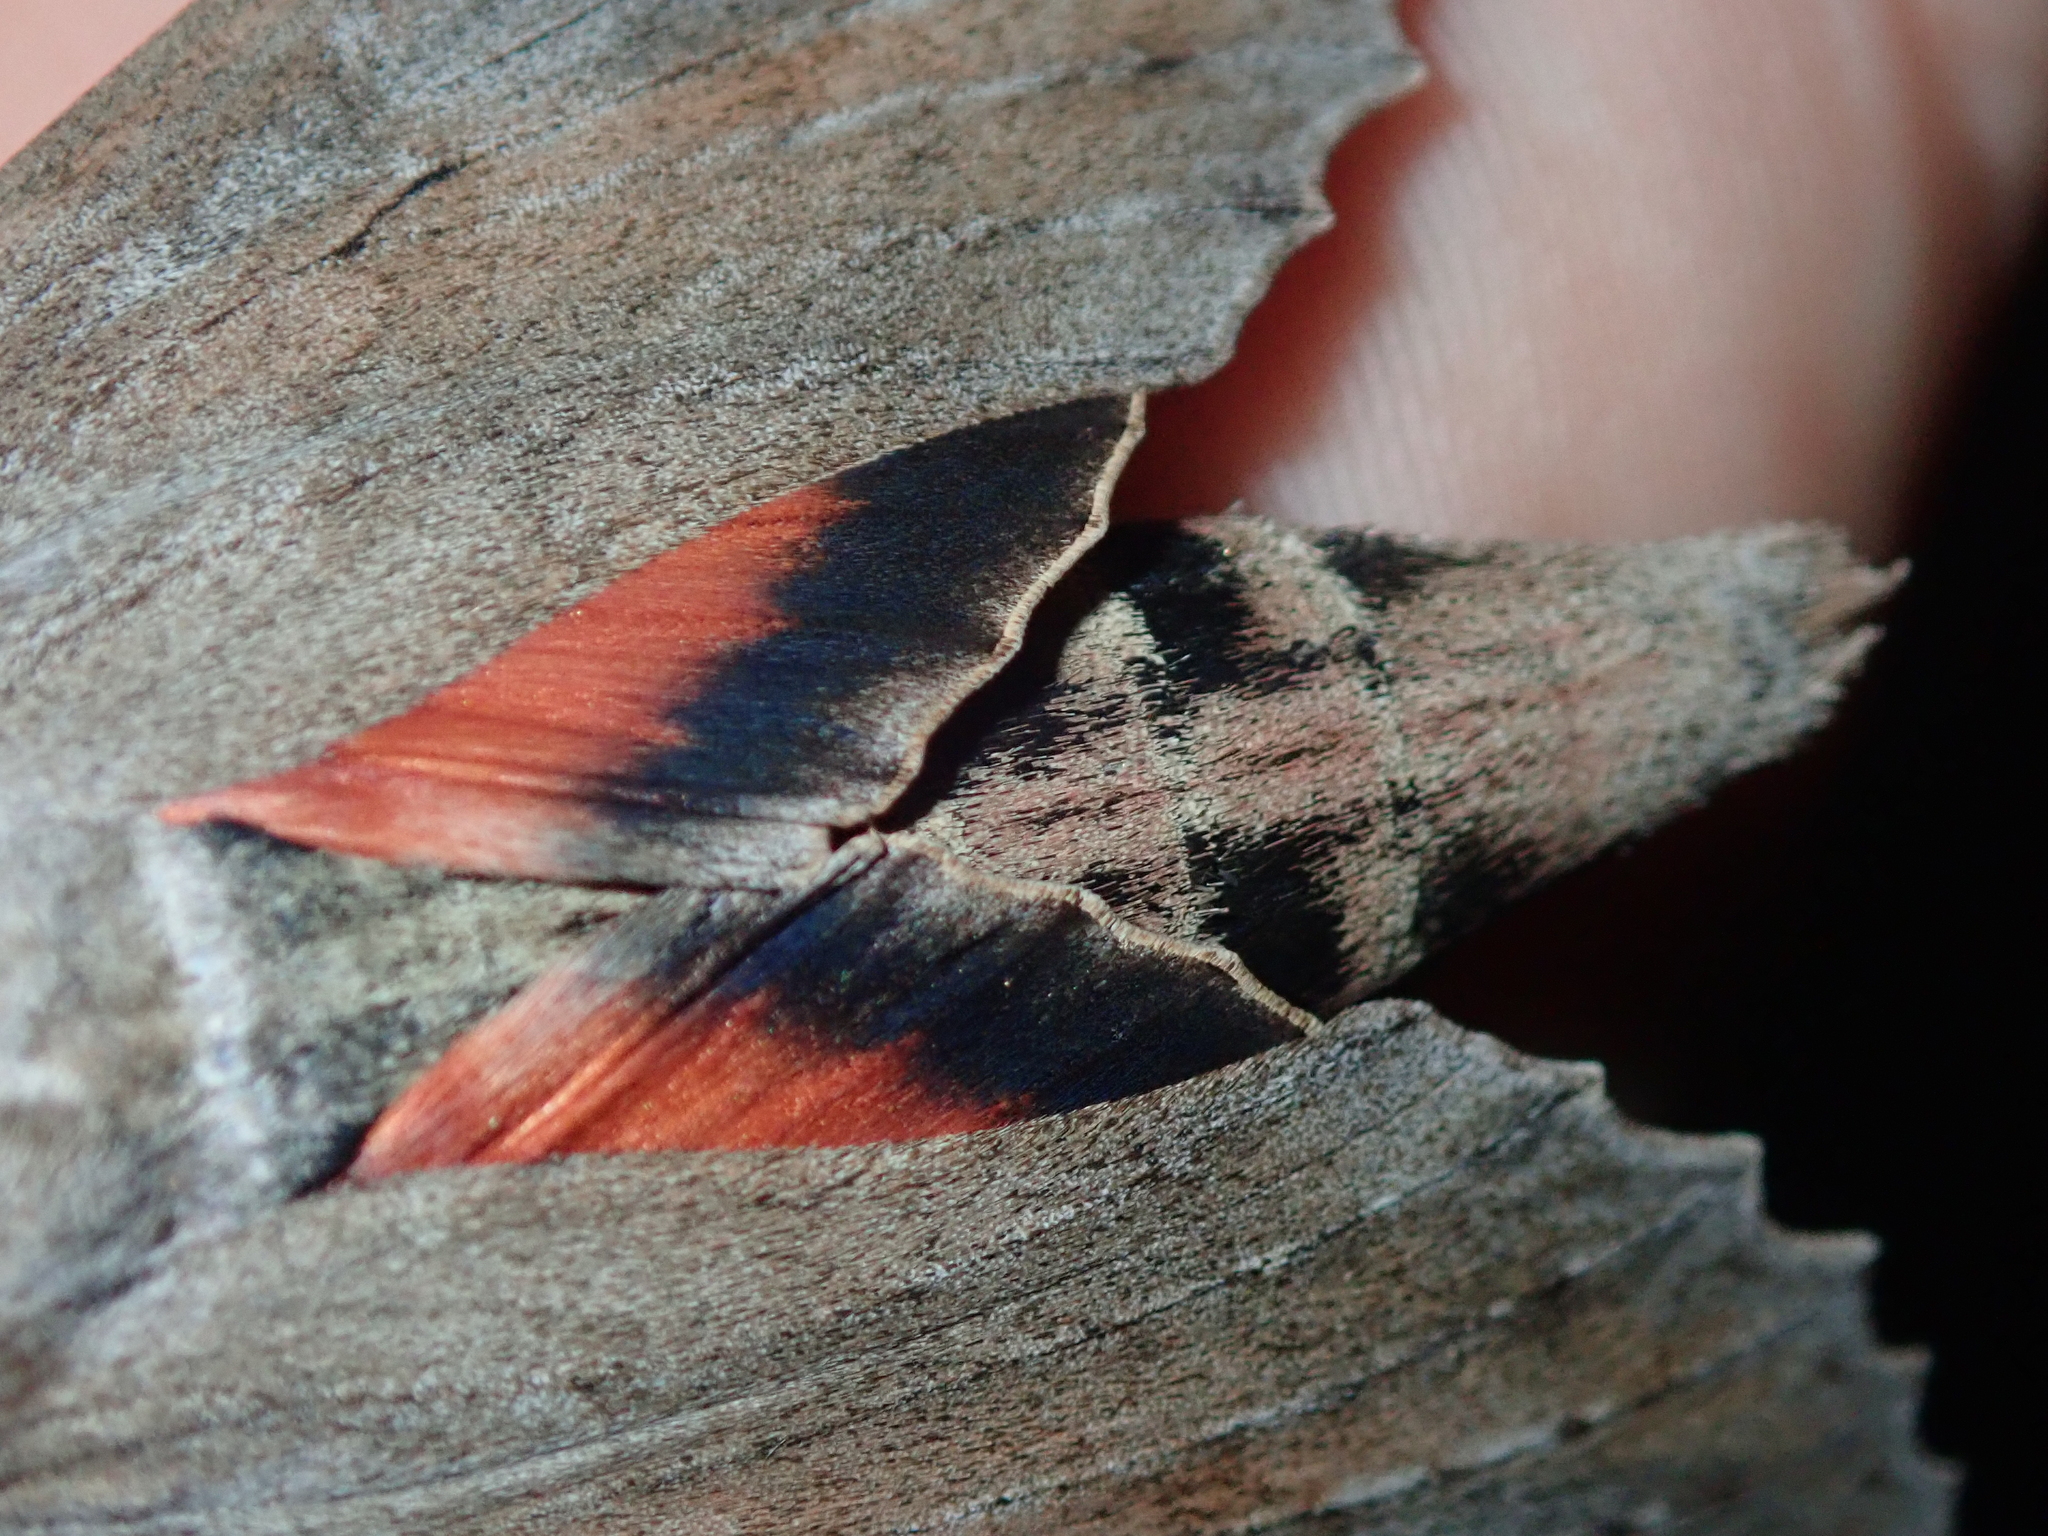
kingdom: Animalia
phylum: Arthropoda
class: Insecta
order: Lepidoptera
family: Sphingidae
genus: Erinnyis
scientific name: Erinnyis ello
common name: Ello sphinx
